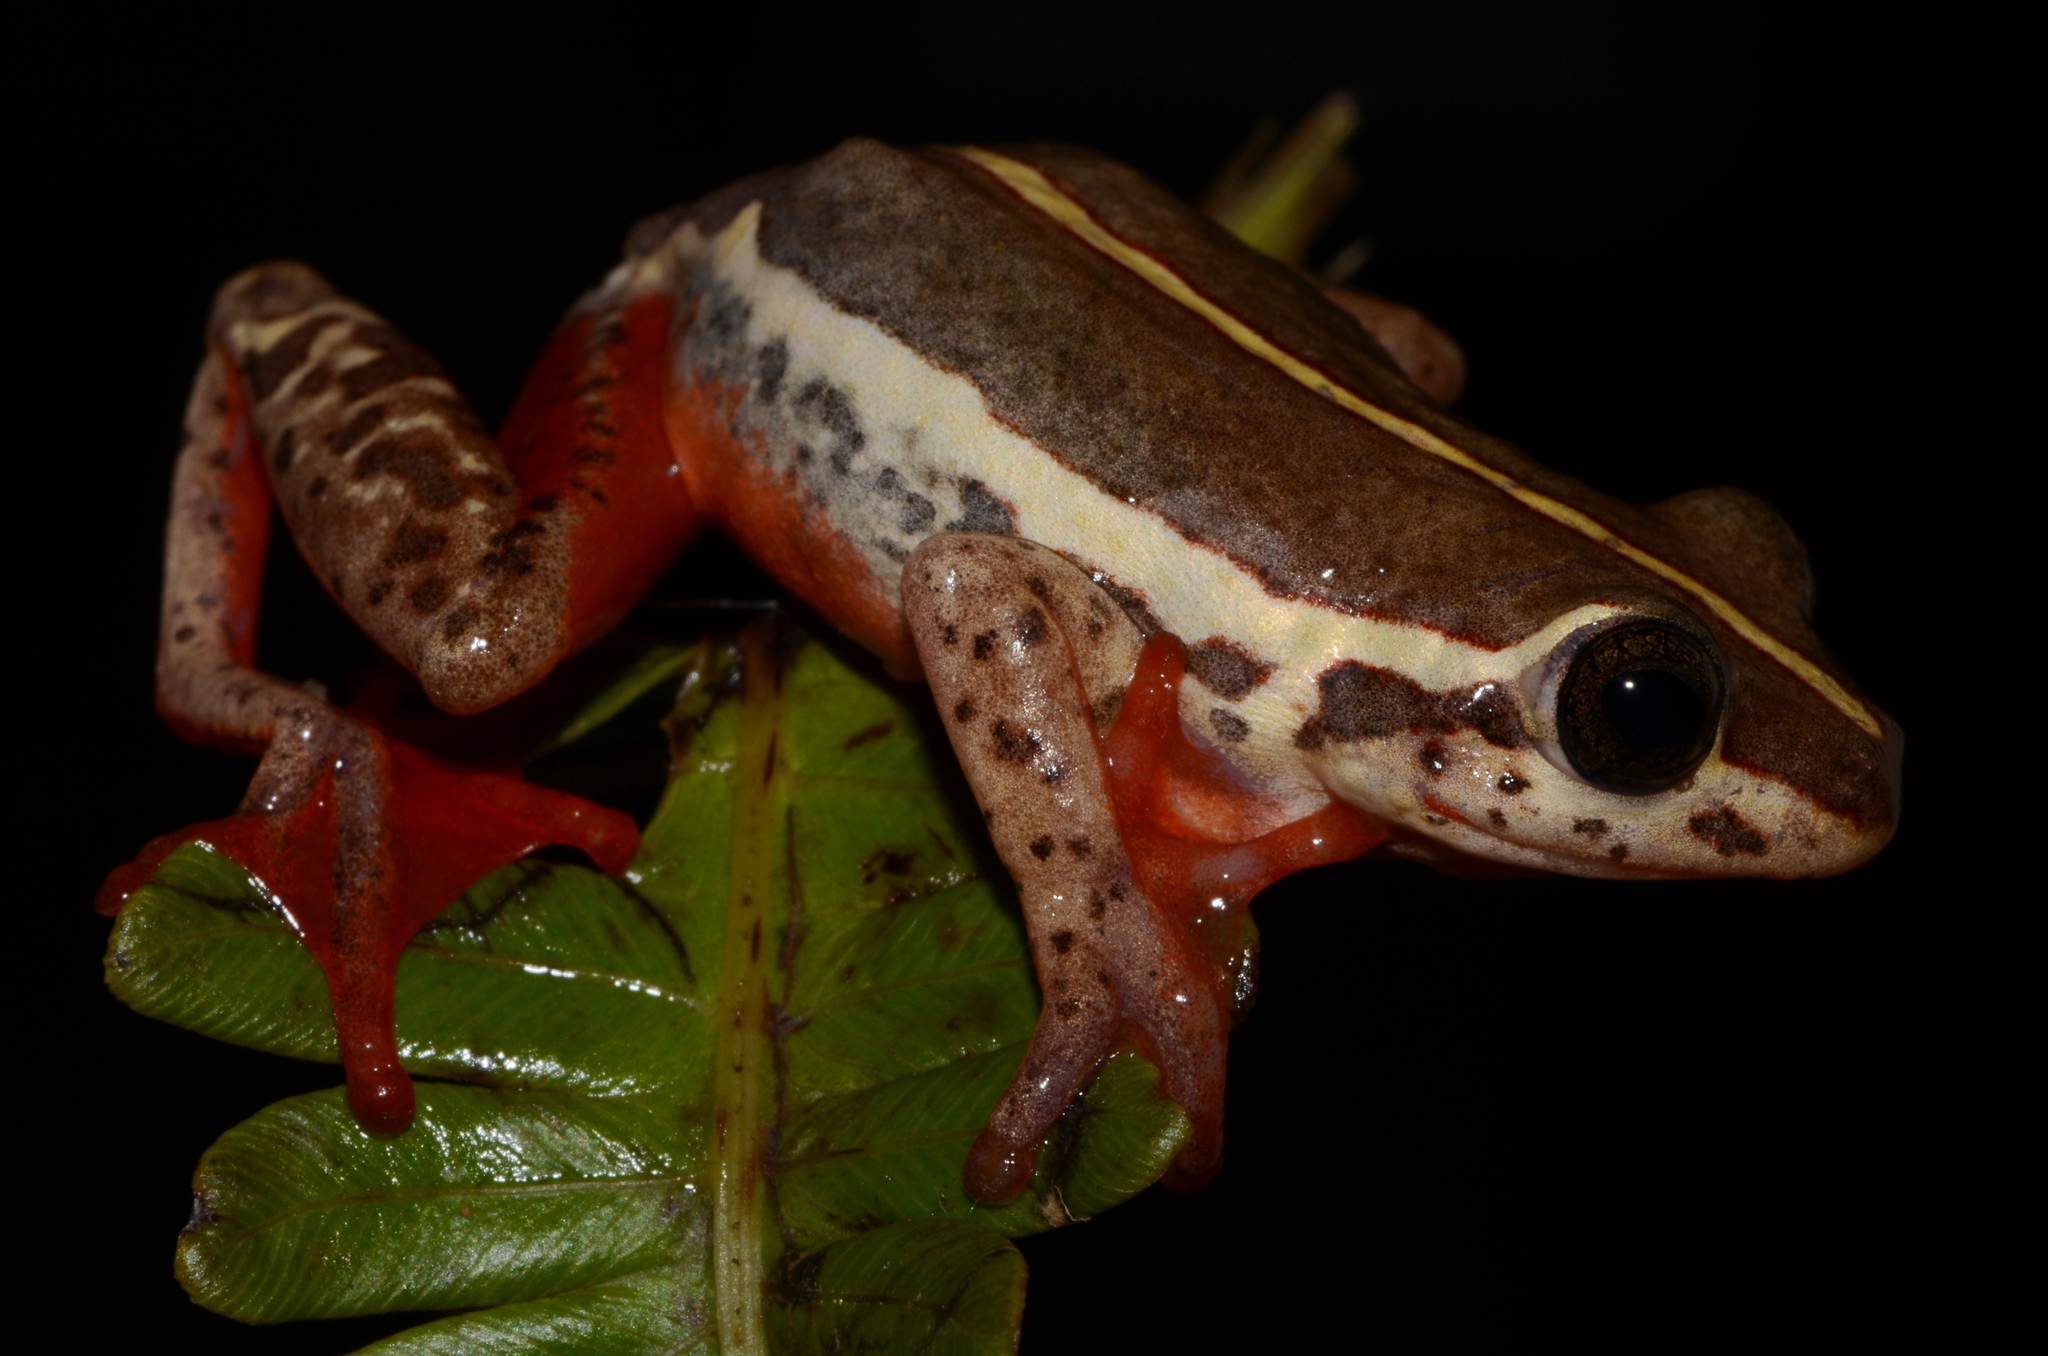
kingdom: Animalia
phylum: Chordata
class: Amphibia
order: Anura
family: Hyperoliidae
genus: Hyperolius
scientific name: Hyperolius parallelus
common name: Angolan reed frog
